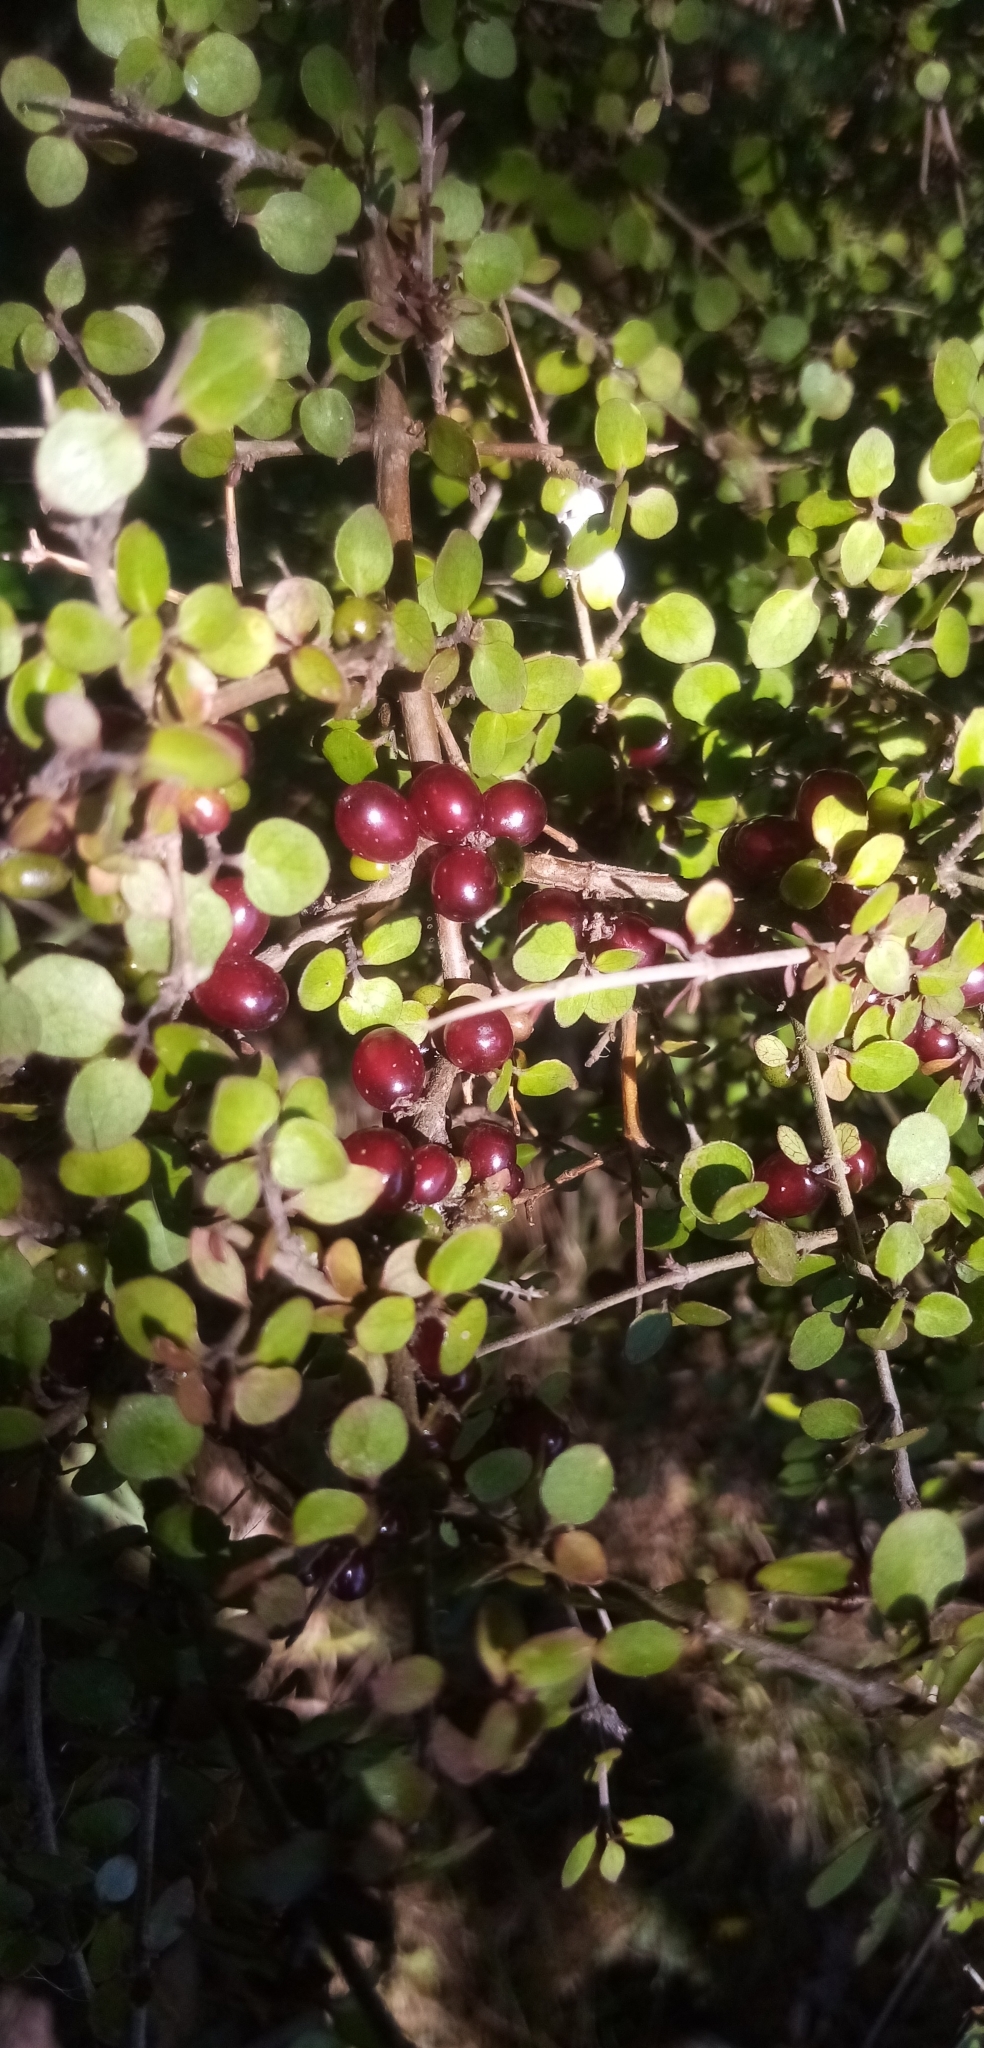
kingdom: Plantae
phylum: Tracheophyta
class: Magnoliopsida
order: Gentianales
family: Rubiaceae
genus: Coprosma
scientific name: Coprosma rhamnoides
